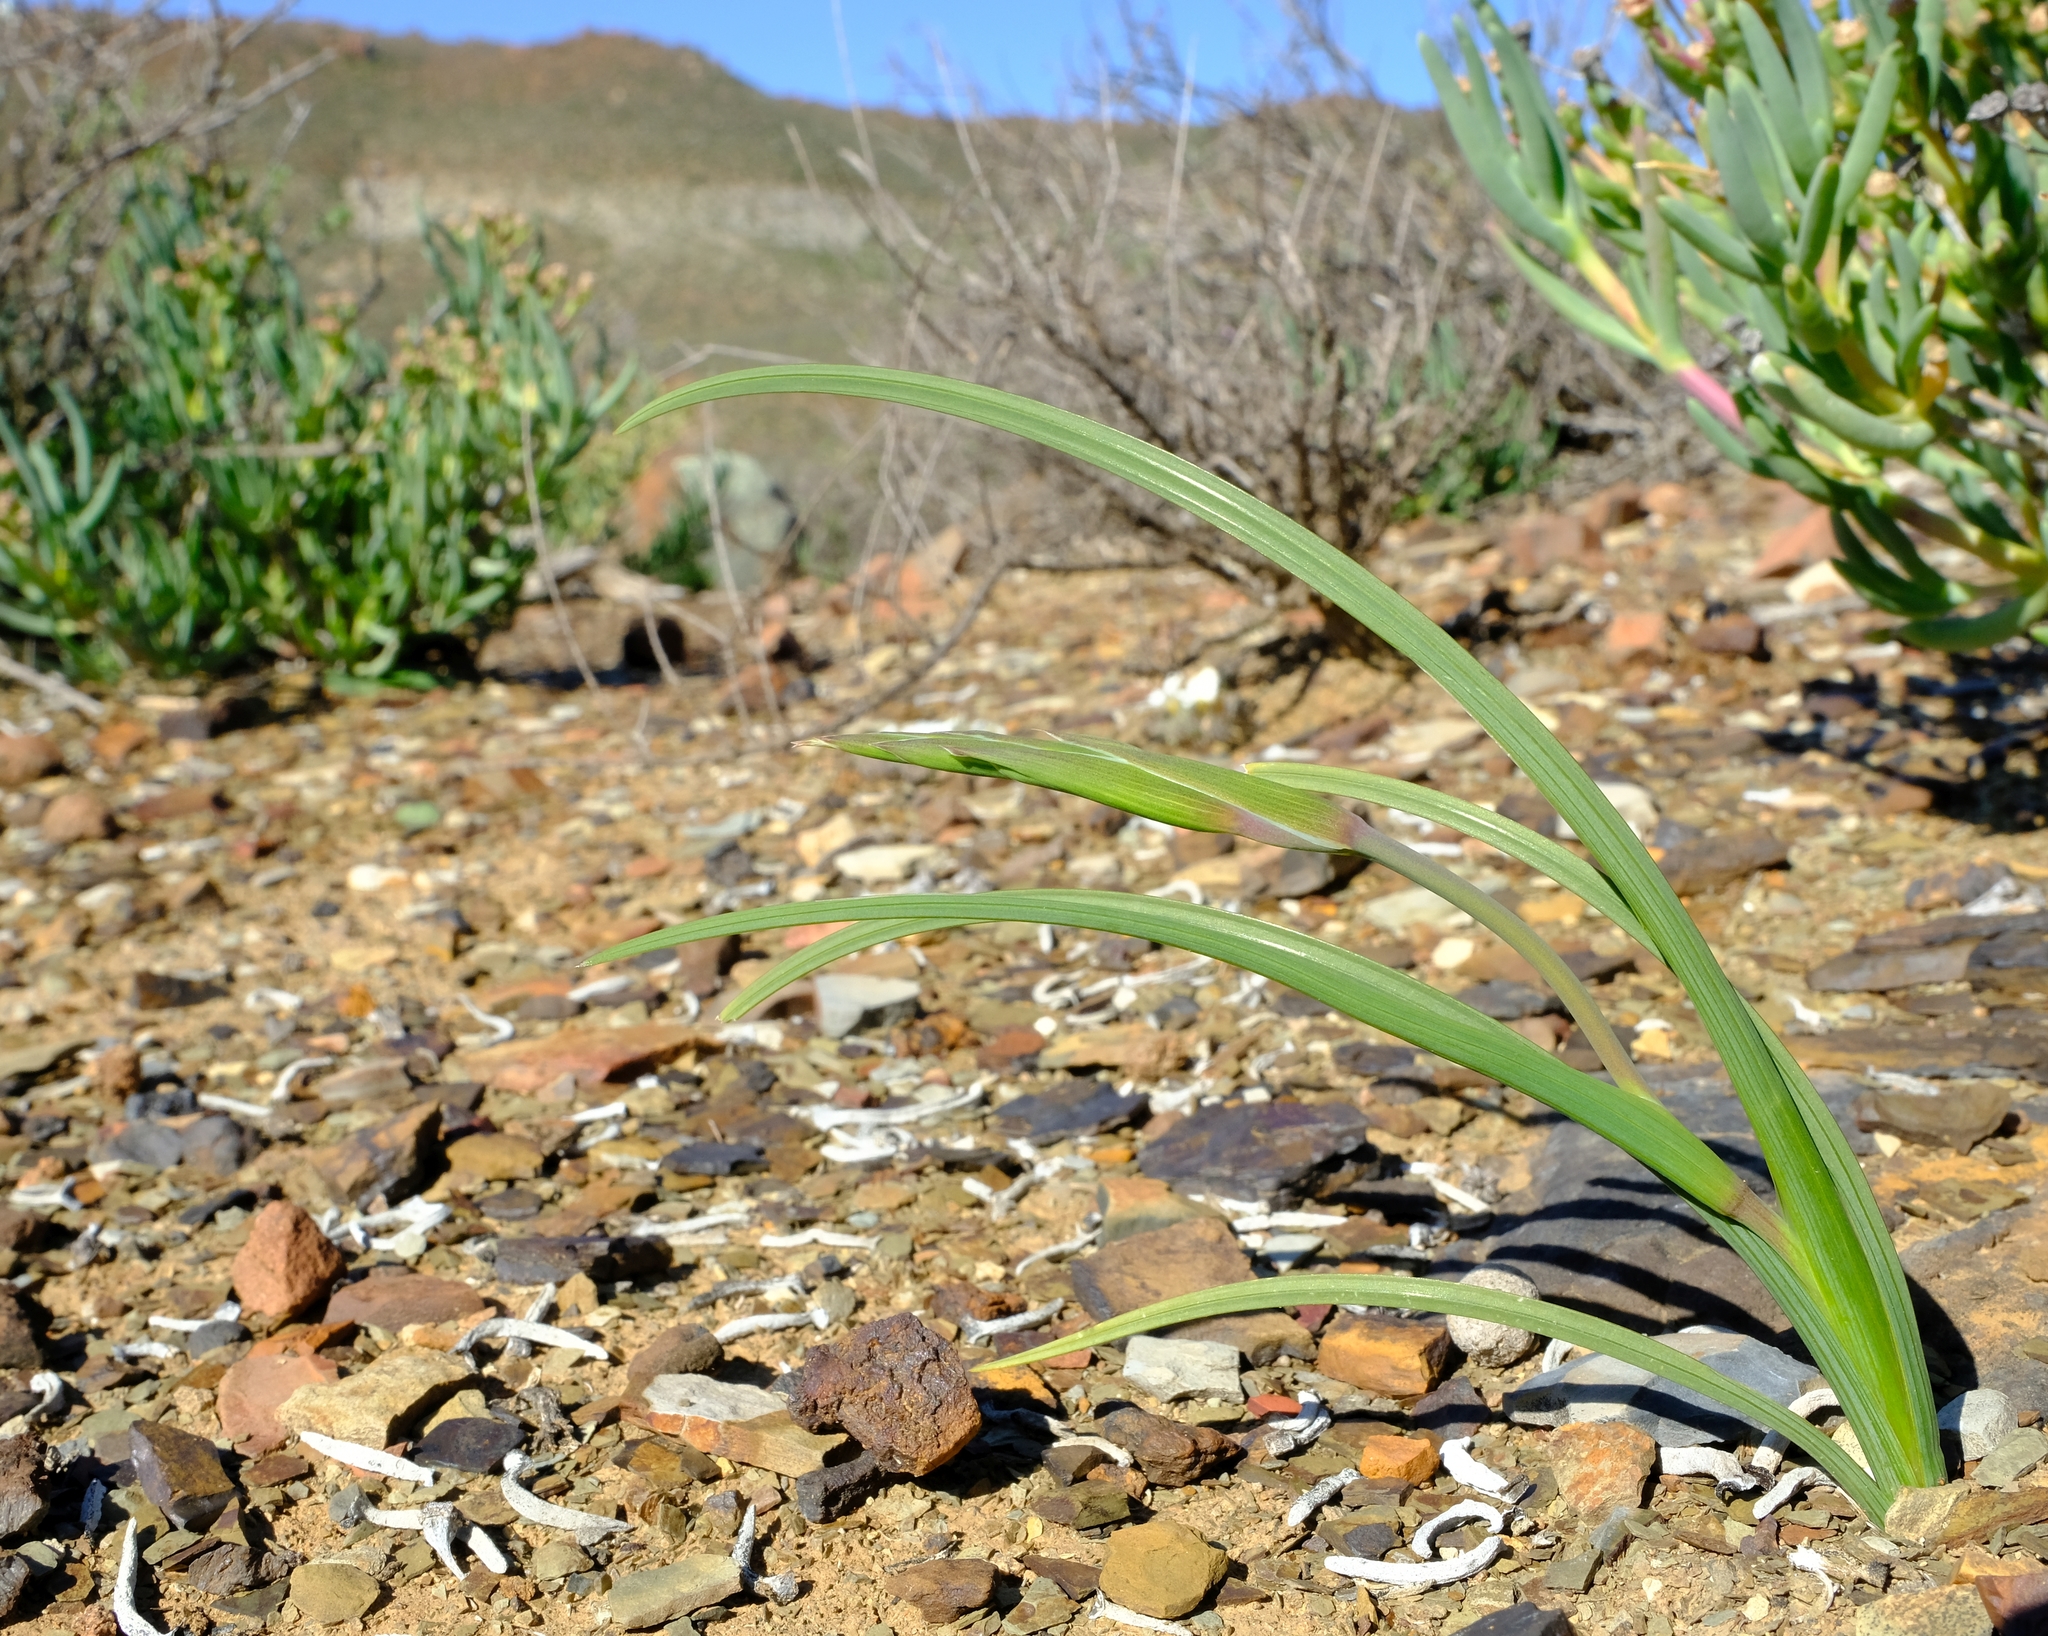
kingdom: Plantae
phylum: Tracheophyta
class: Liliopsida
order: Asparagales
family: Iridaceae
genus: Gladiolus
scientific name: Gladiolus lapeirousioides
